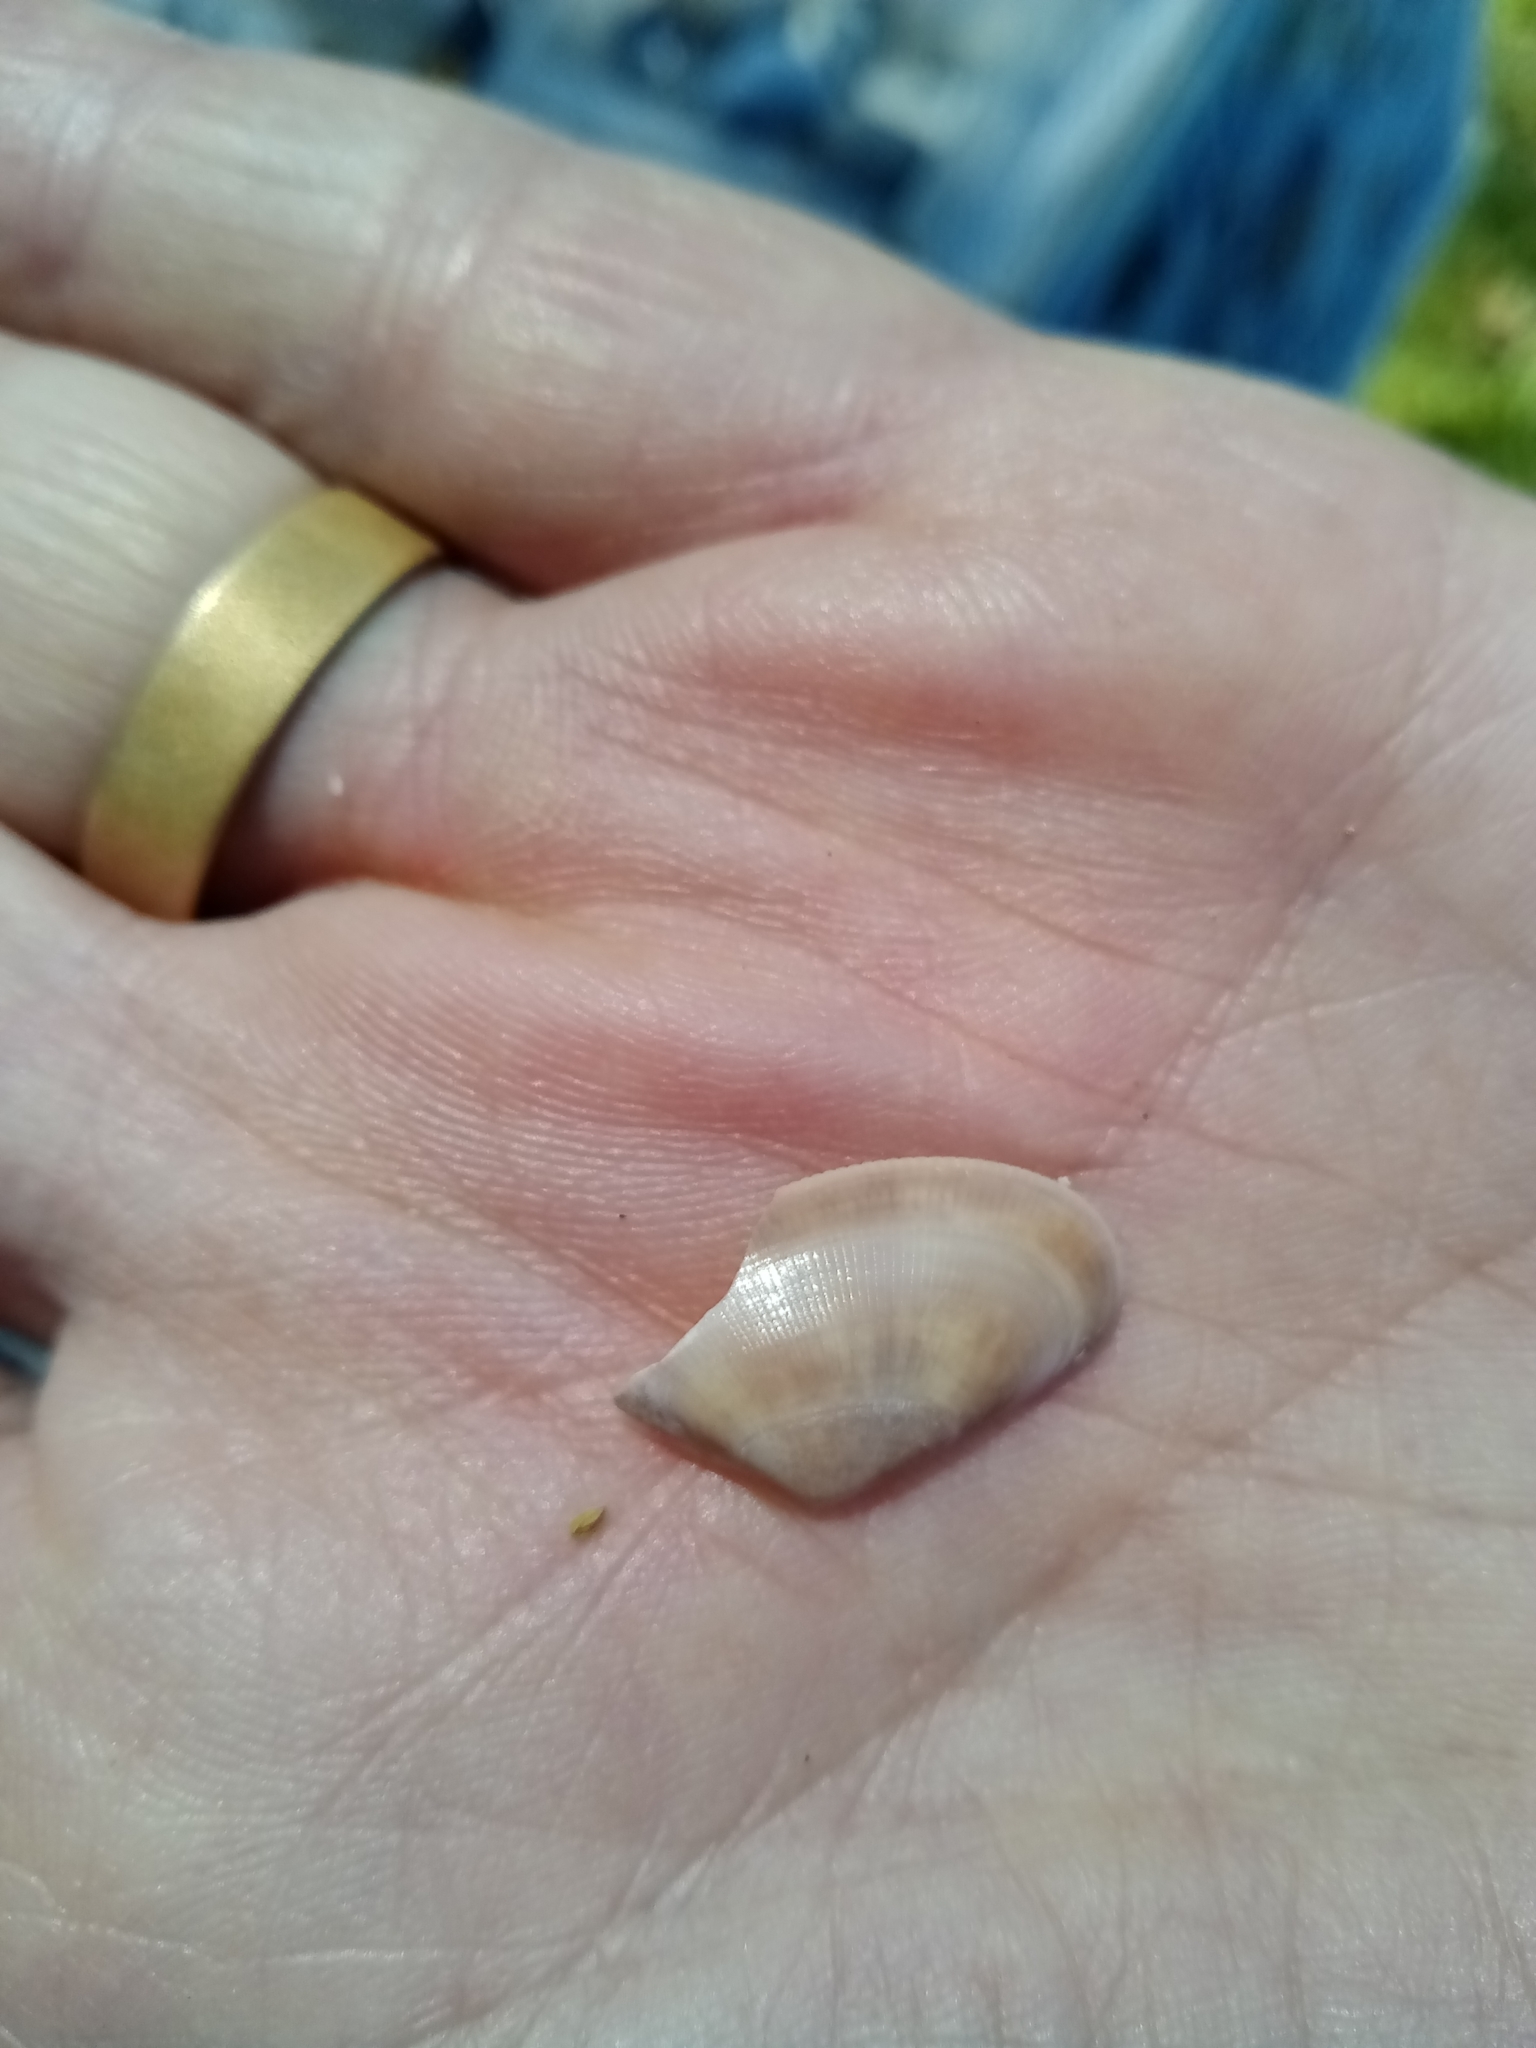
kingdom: Animalia
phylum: Mollusca
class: Bivalvia
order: Cardiida
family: Donacidae
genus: Donax
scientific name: Donax vittatus
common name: Banded wedge-shell
